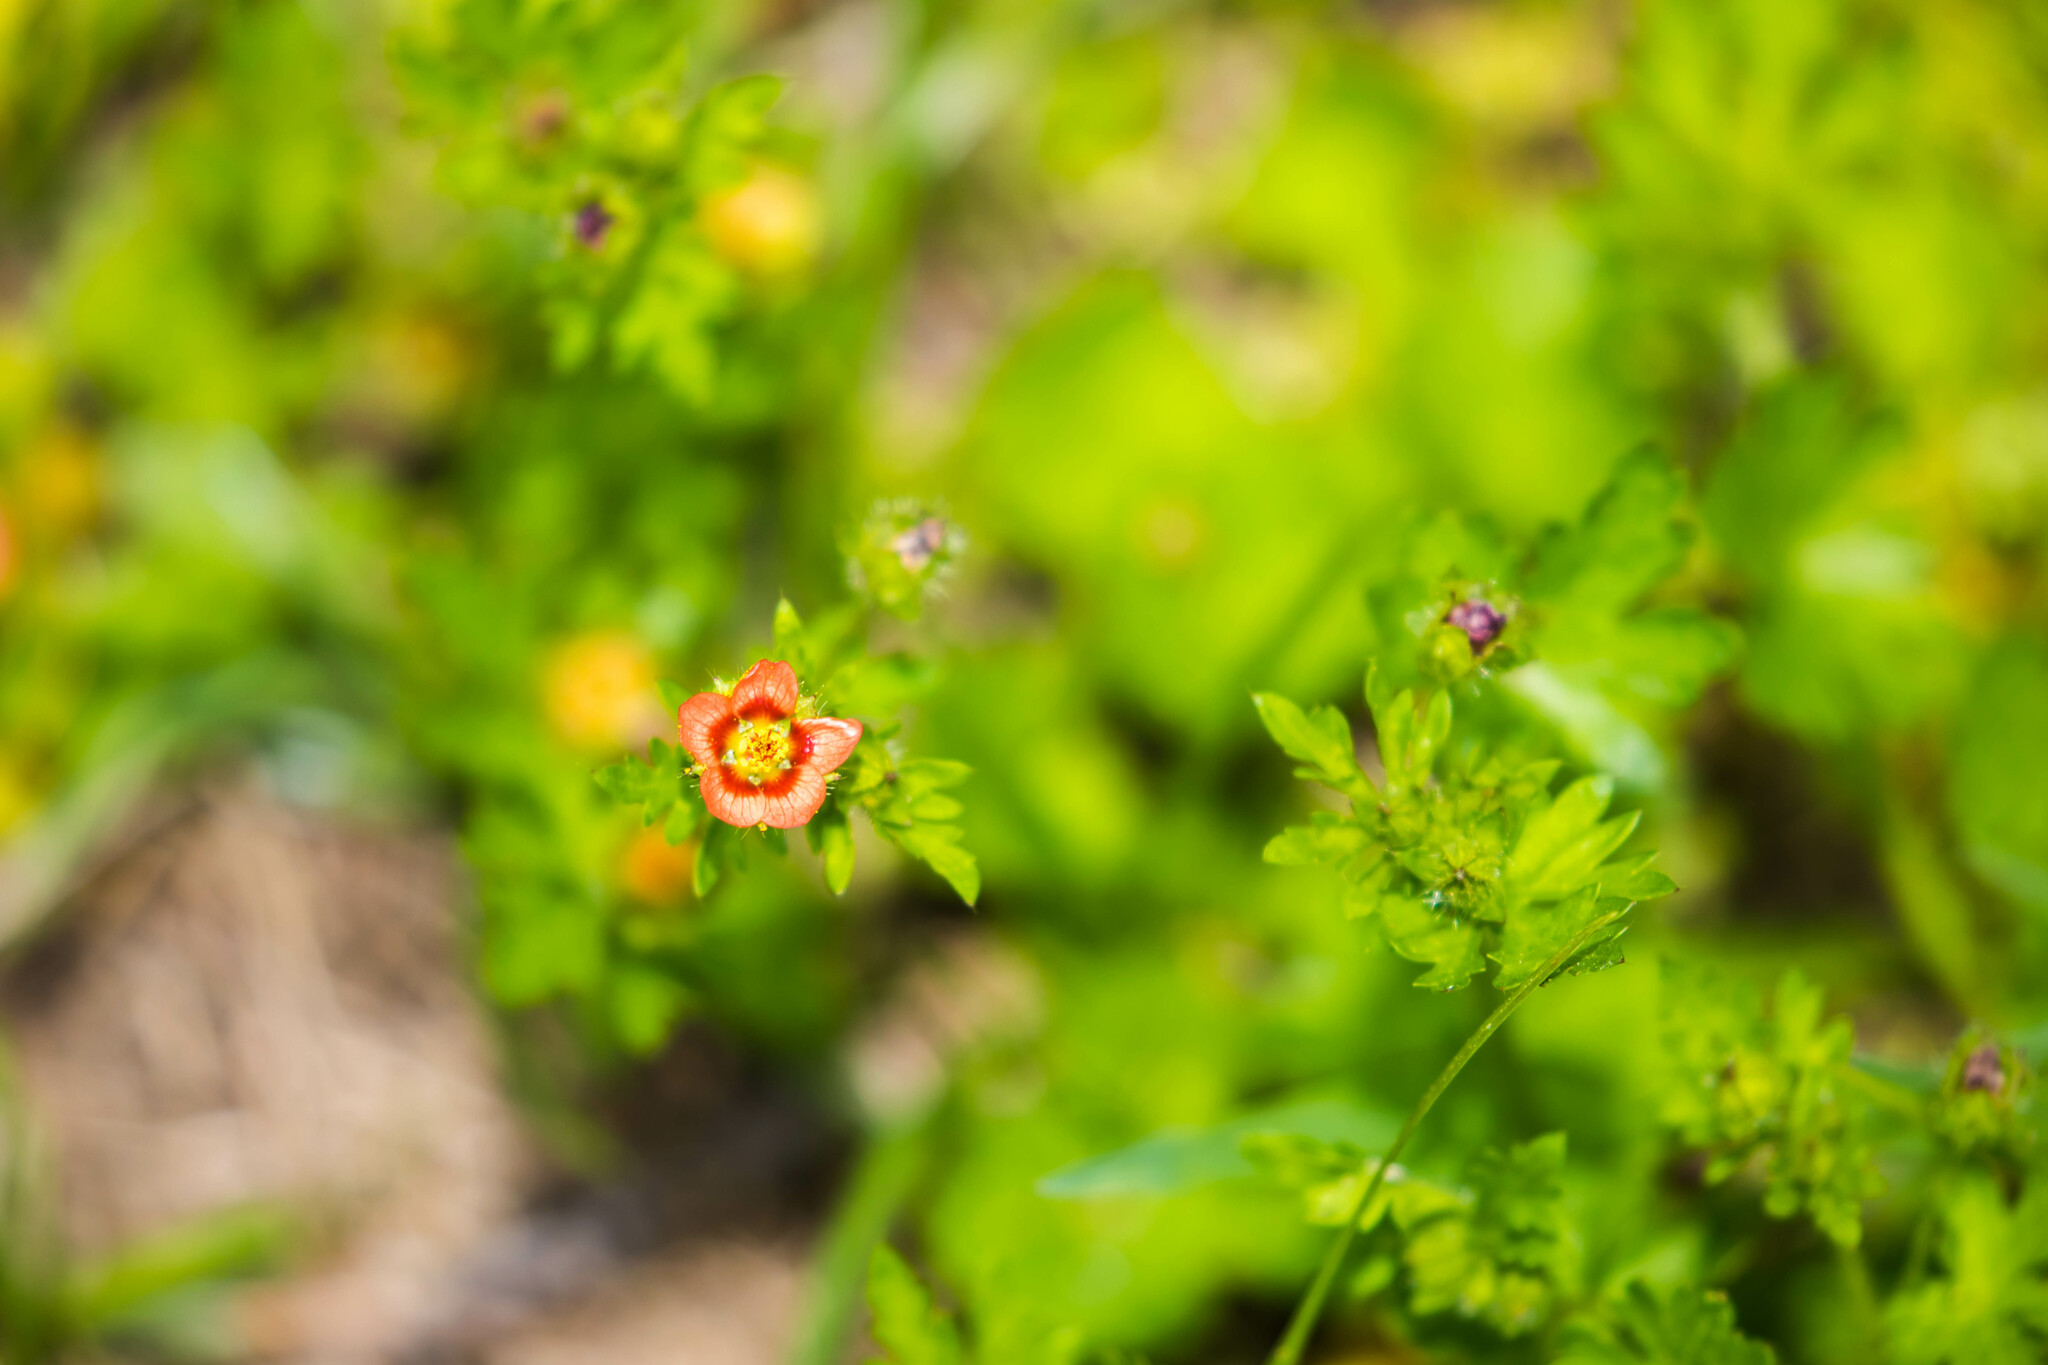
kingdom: Plantae
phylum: Tracheophyta
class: Magnoliopsida
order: Malvales
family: Malvaceae
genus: Modiola
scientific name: Modiola caroliniana
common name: Carolina bristlemallow
